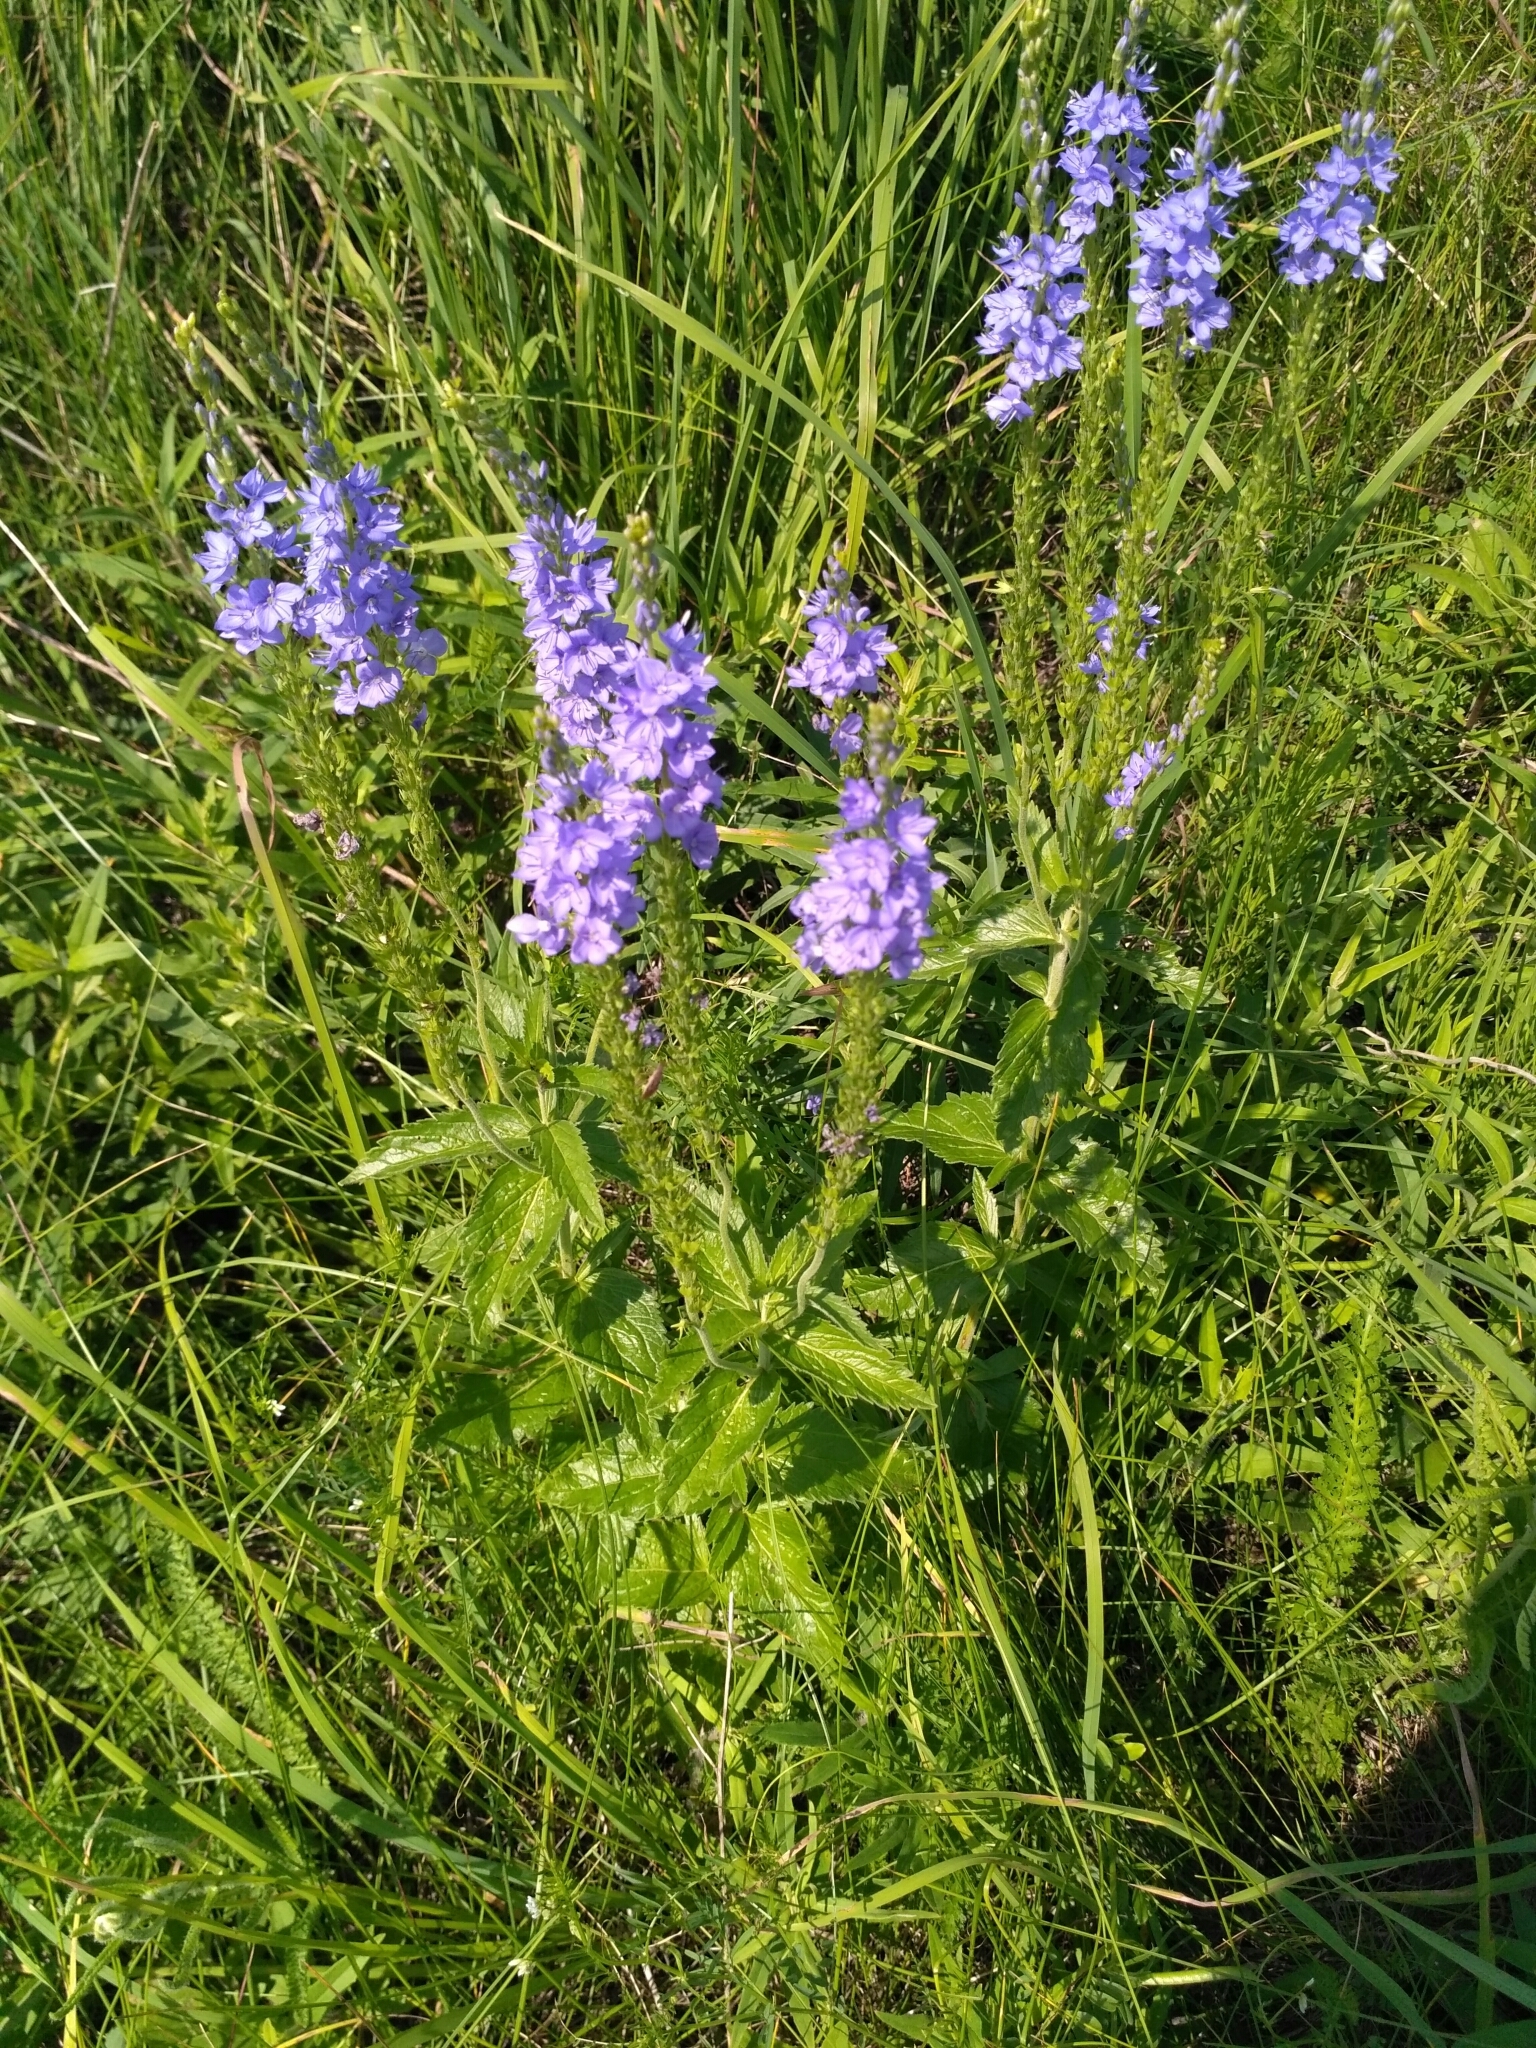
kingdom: Plantae
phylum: Tracheophyta
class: Magnoliopsida
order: Lamiales
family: Plantaginaceae
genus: Veronica
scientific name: Veronica teucrium
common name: Large speedwell
